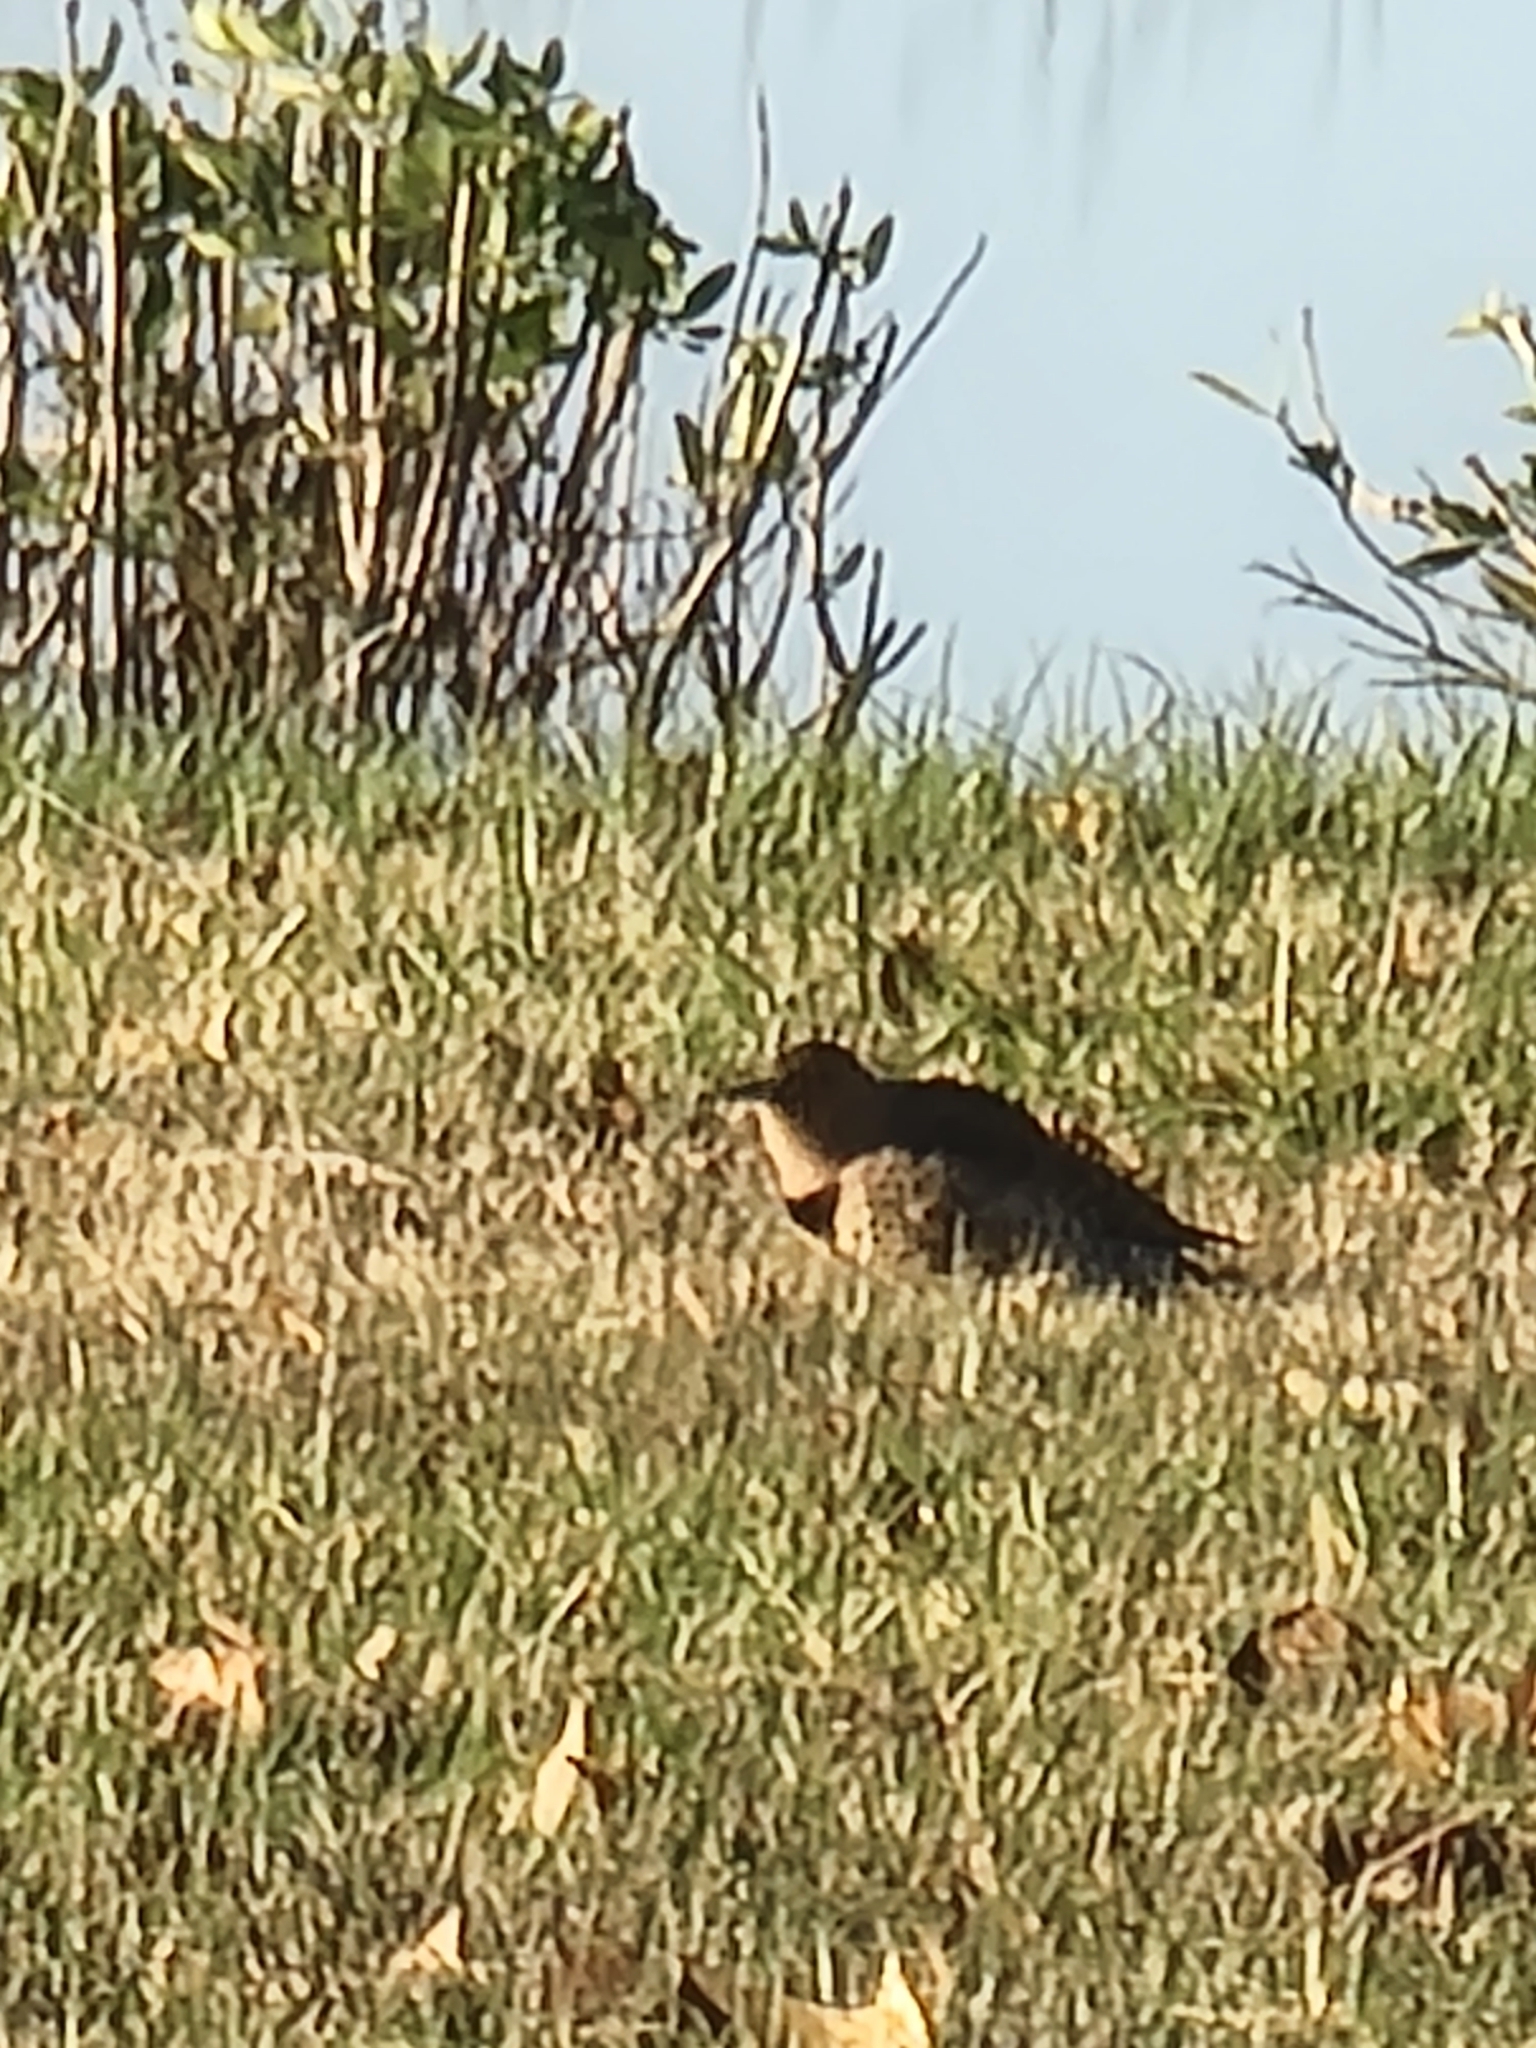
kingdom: Animalia
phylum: Chordata
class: Aves
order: Piciformes
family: Picidae
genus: Colaptes
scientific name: Colaptes auratus
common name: Northern flicker
